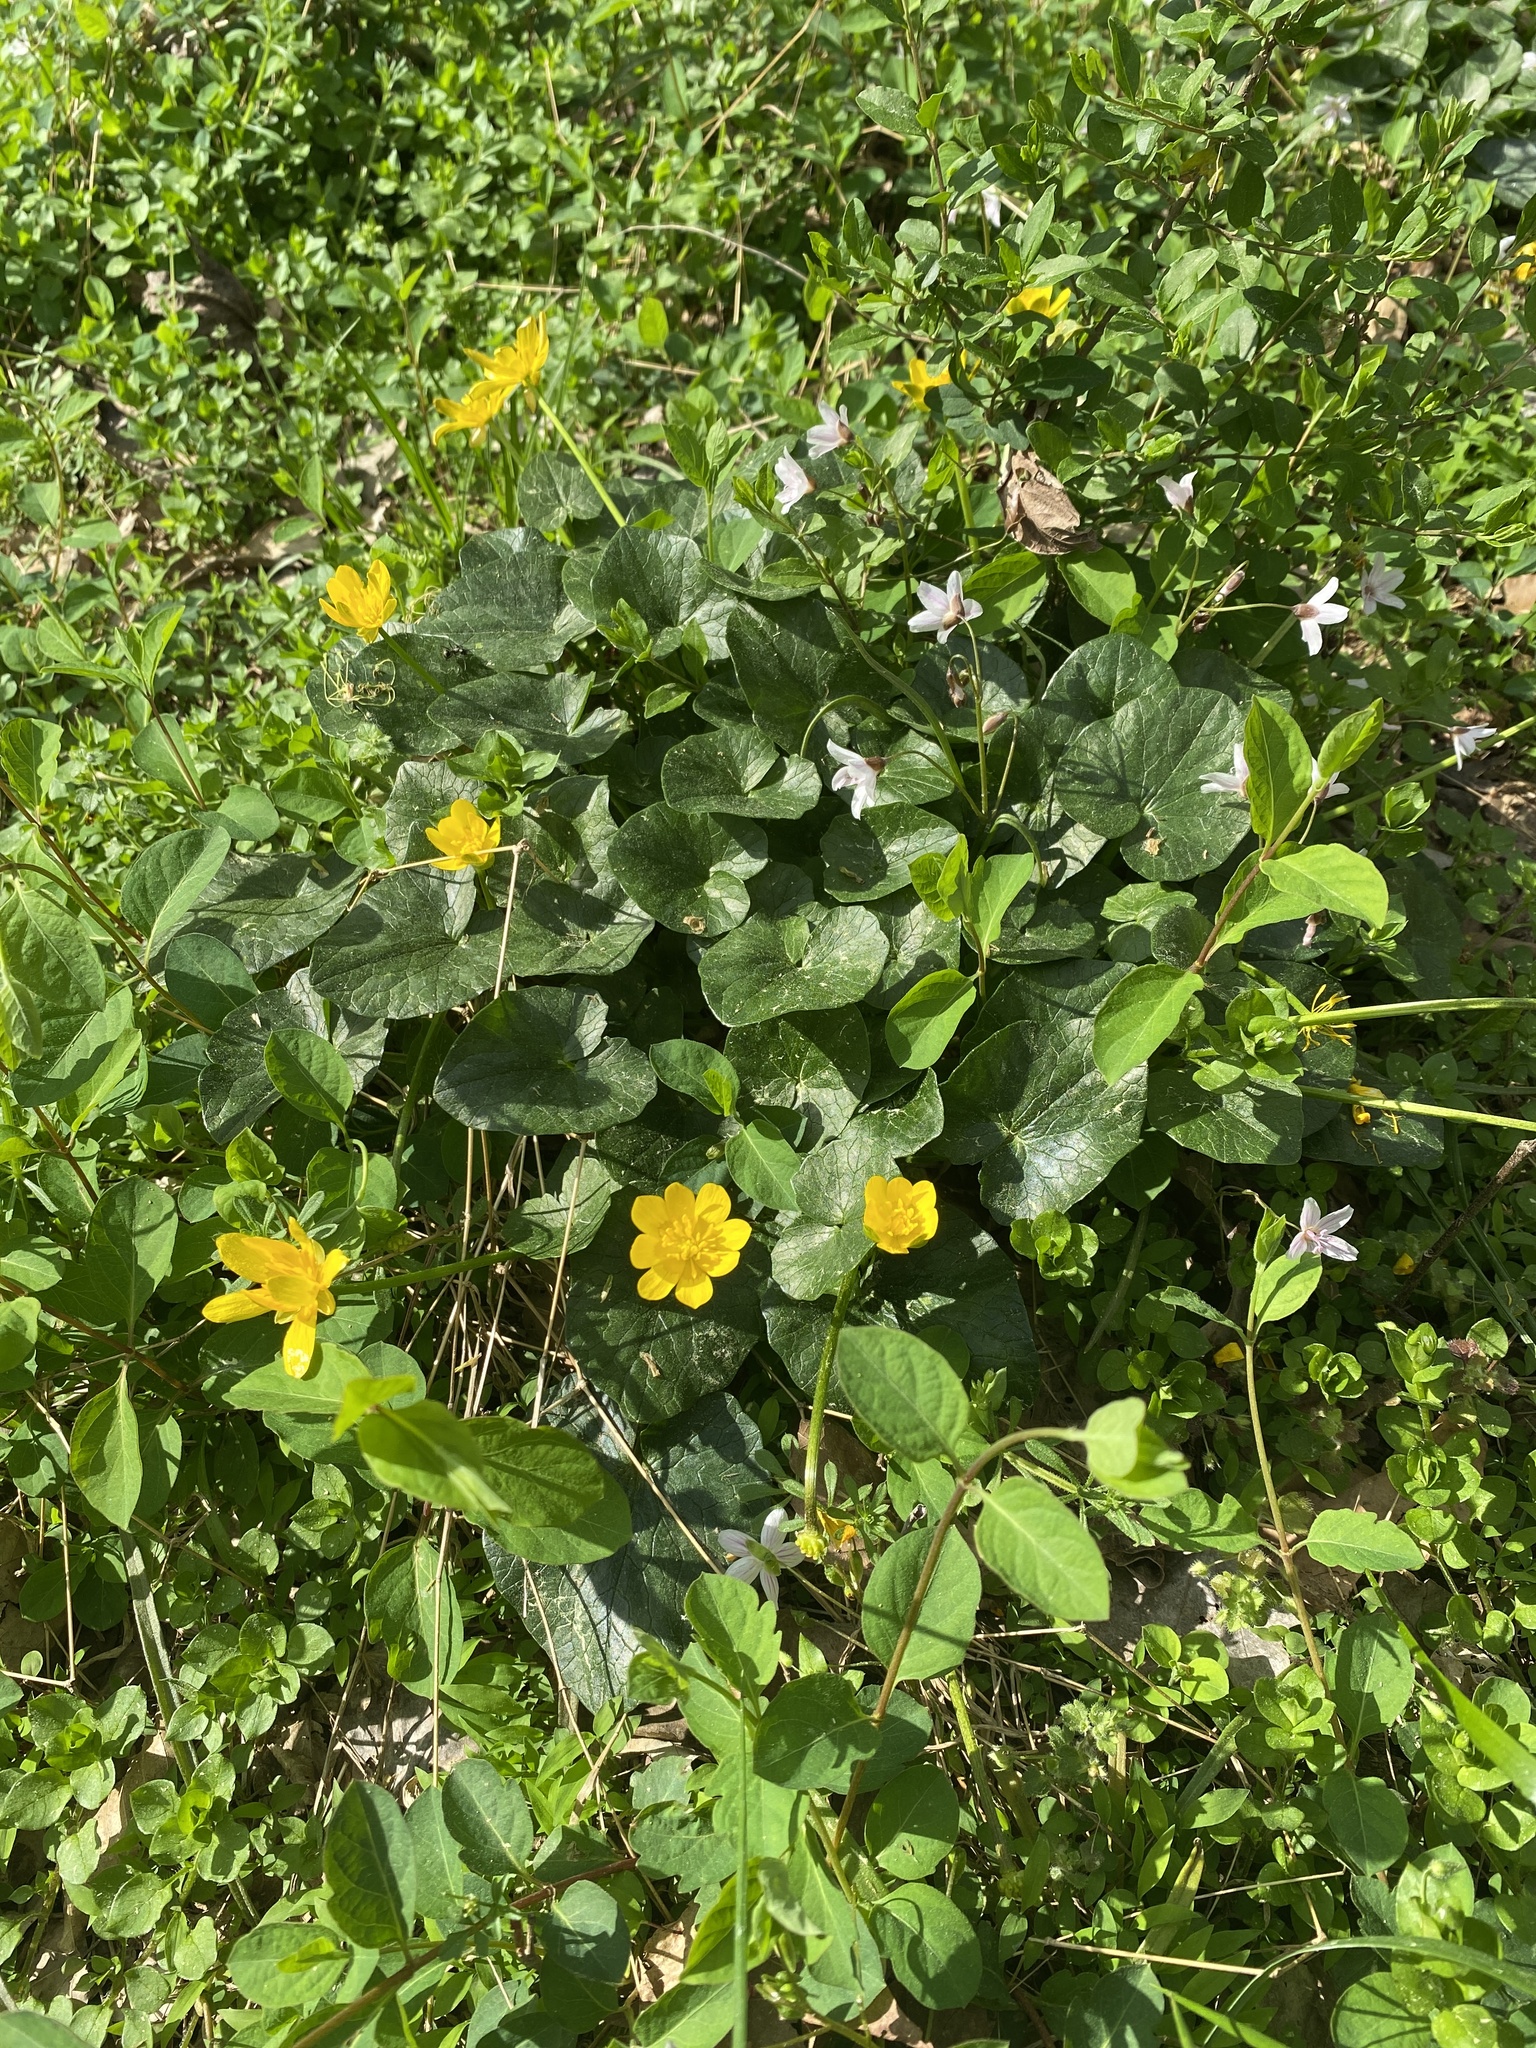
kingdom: Plantae
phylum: Tracheophyta
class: Magnoliopsida
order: Ranunculales
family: Ranunculaceae
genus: Ficaria
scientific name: Ficaria verna
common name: Lesser celandine
